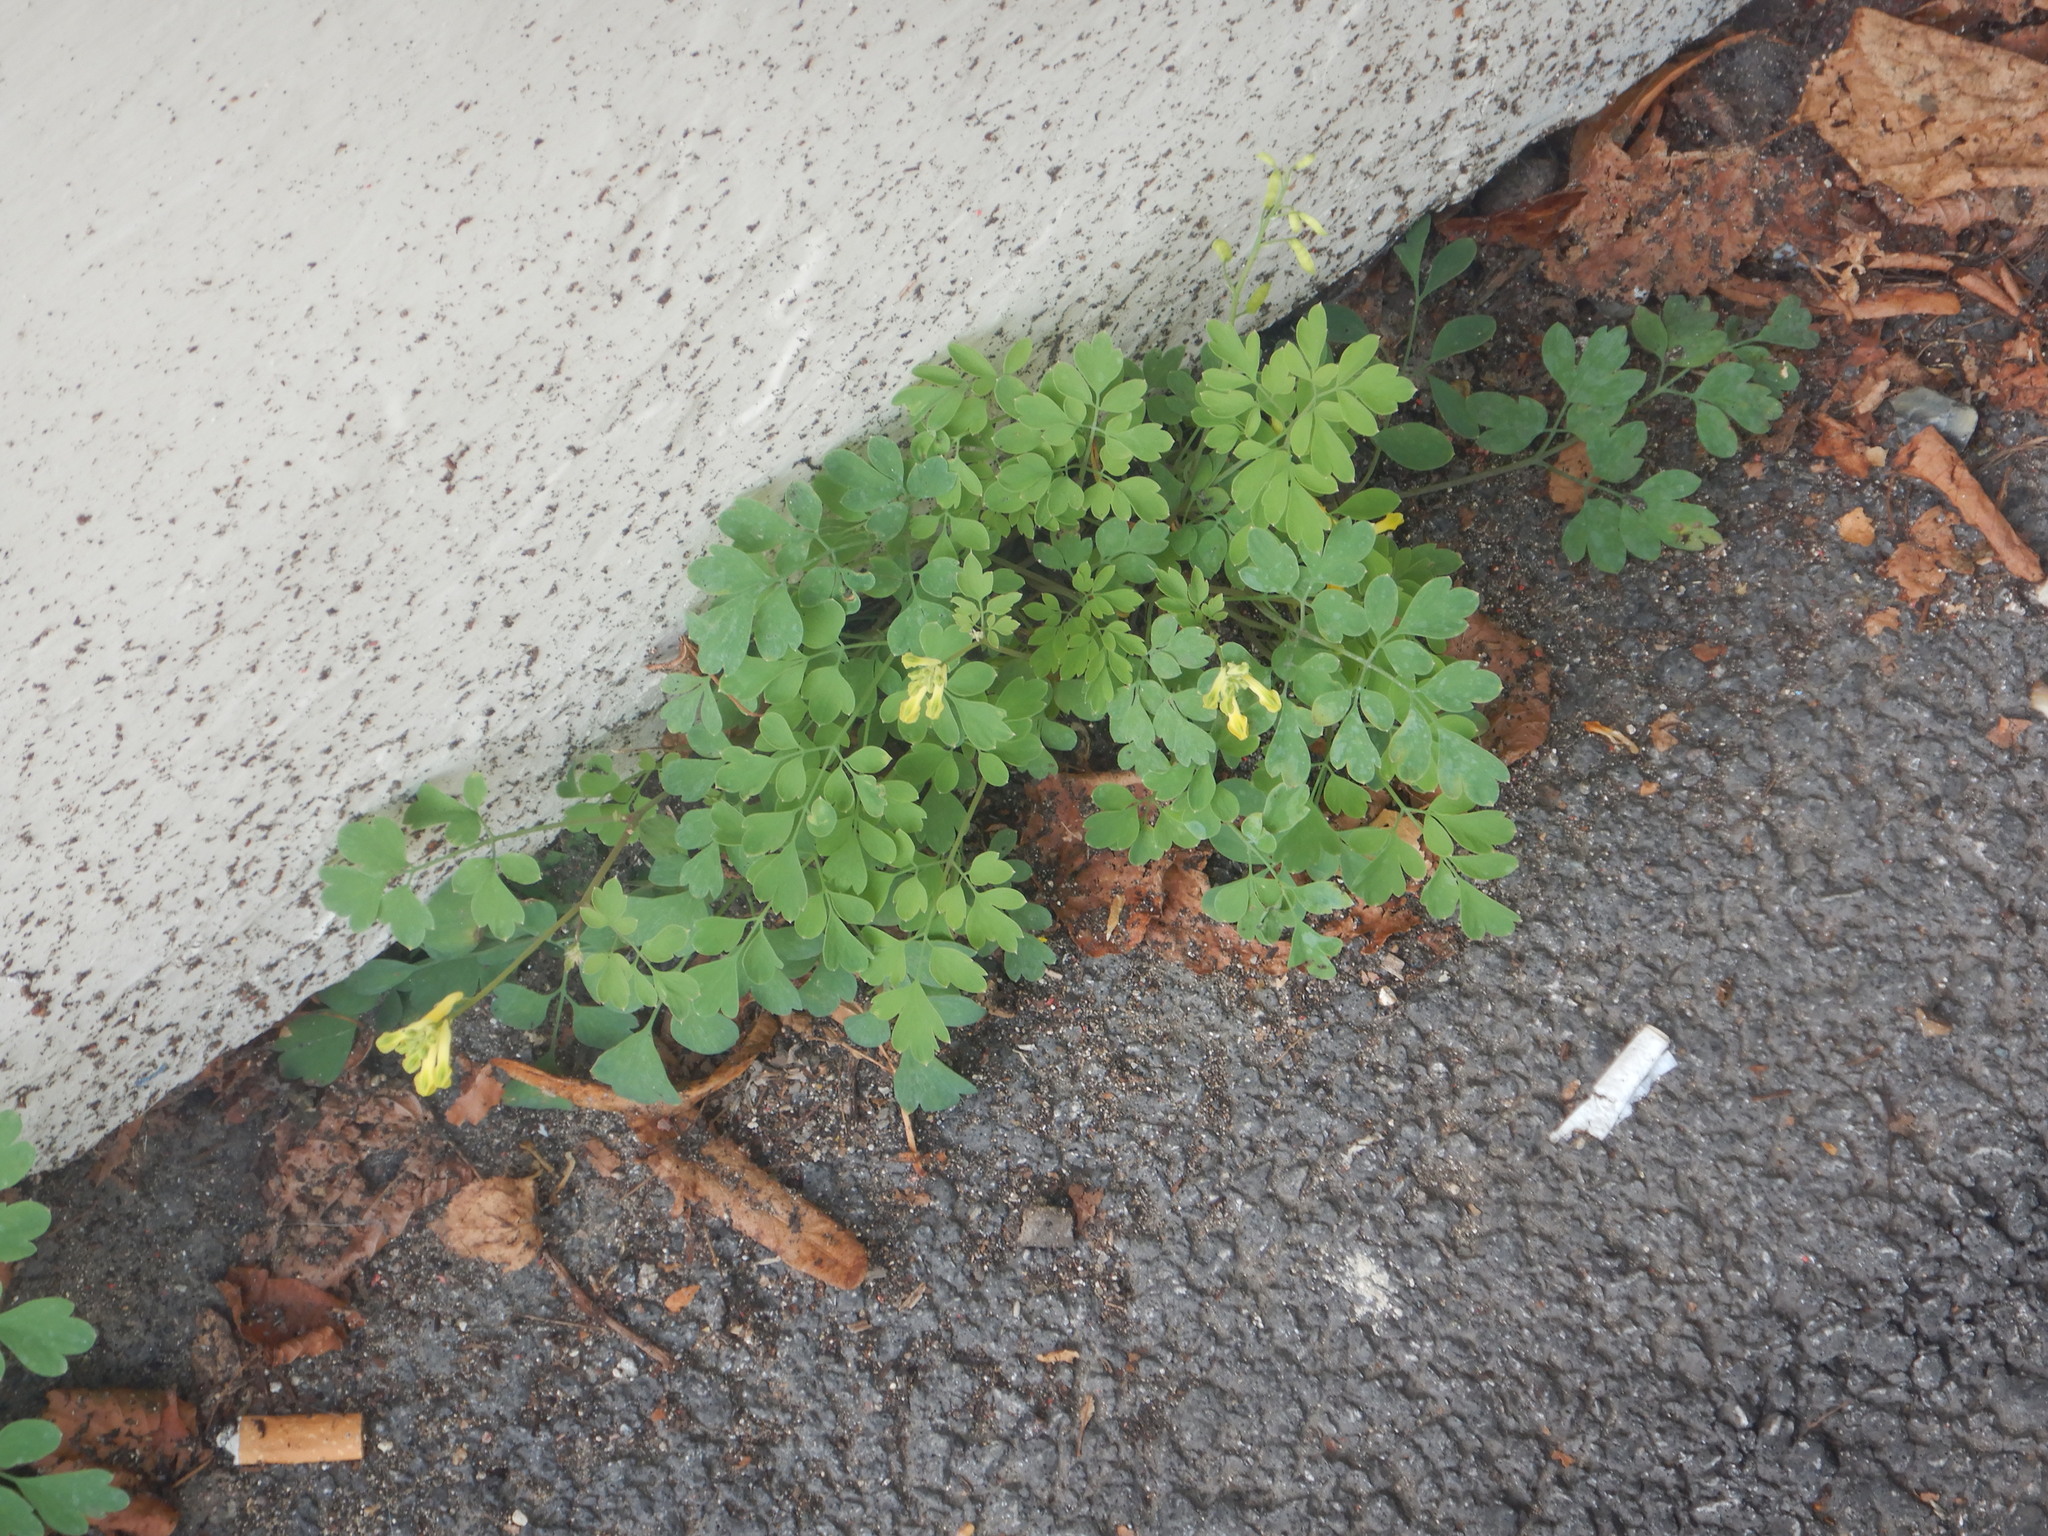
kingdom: Plantae
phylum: Tracheophyta
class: Magnoliopsida
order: Ranunculales
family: Papaveraceae
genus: Pseudofumaria
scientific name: Pseudofumaria lutea
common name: Yellow corydalis
